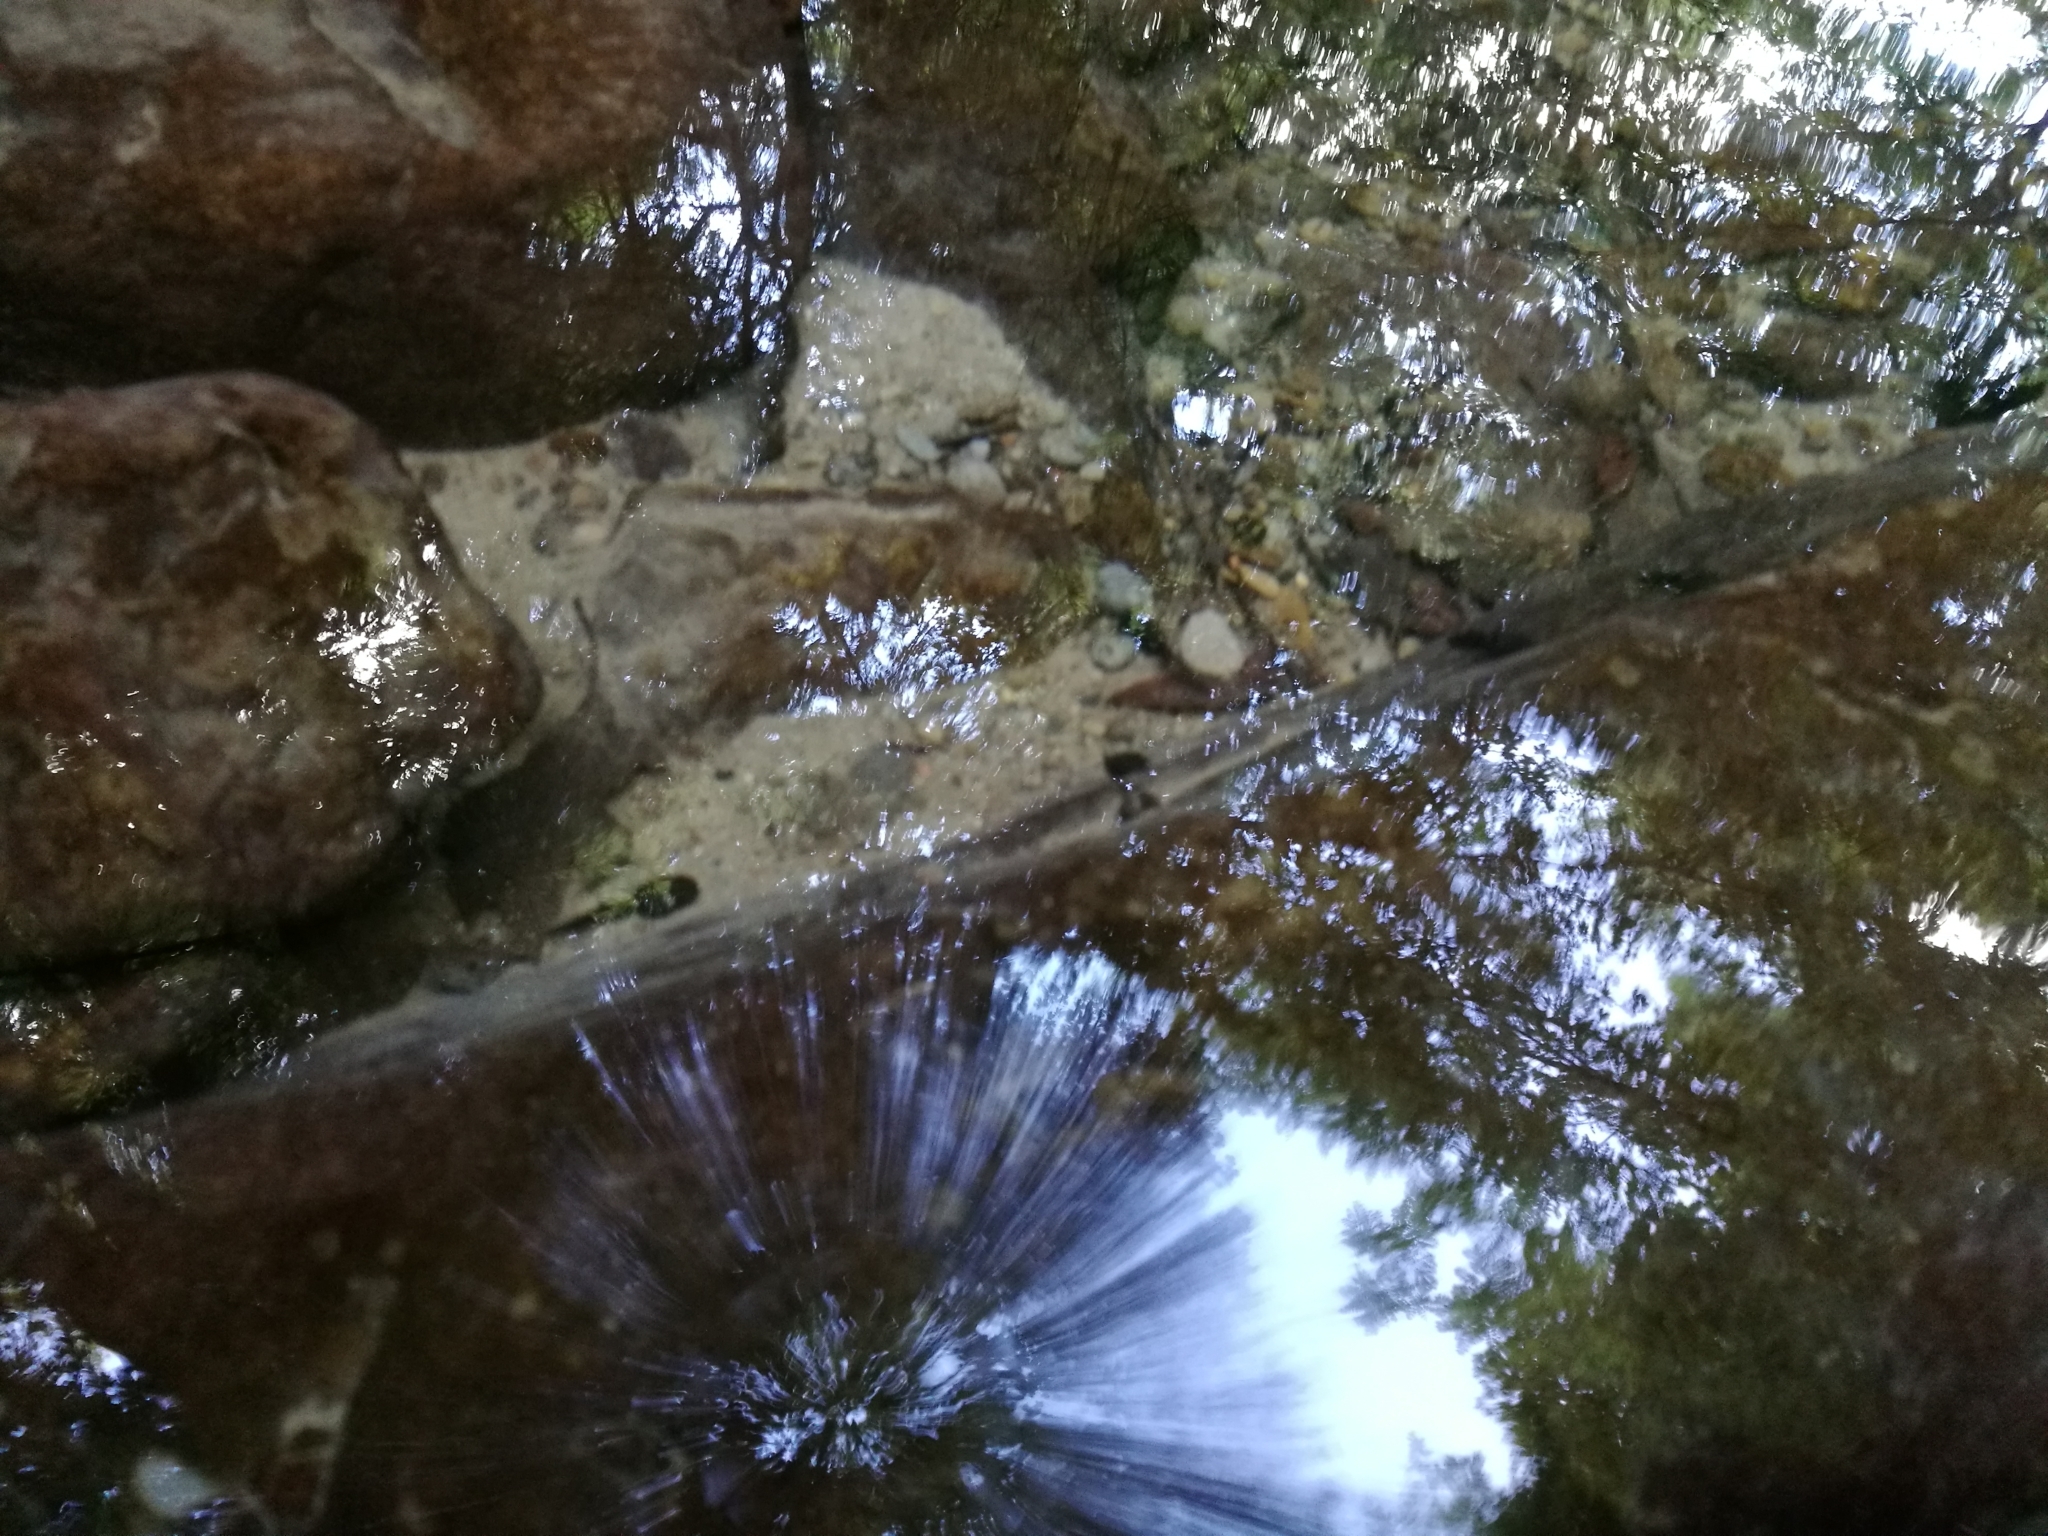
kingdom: Animalia
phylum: Chordata
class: Amphibia
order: Anura
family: Bufonidae
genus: Bufo
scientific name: Bufo bufo
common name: Common toad
